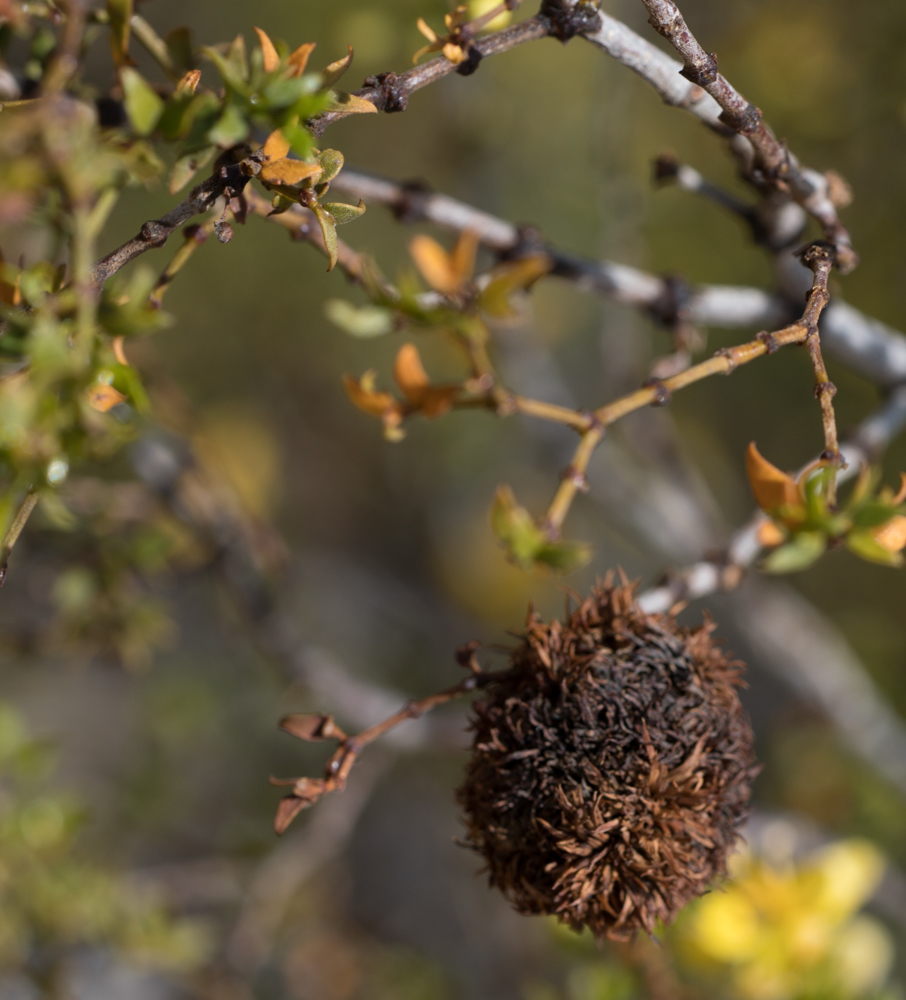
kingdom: Animalia
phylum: Arthropoda
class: Insecta
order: Diptera
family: Cecidomyiidae
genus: Asphondylia
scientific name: Asphondylia auripila
